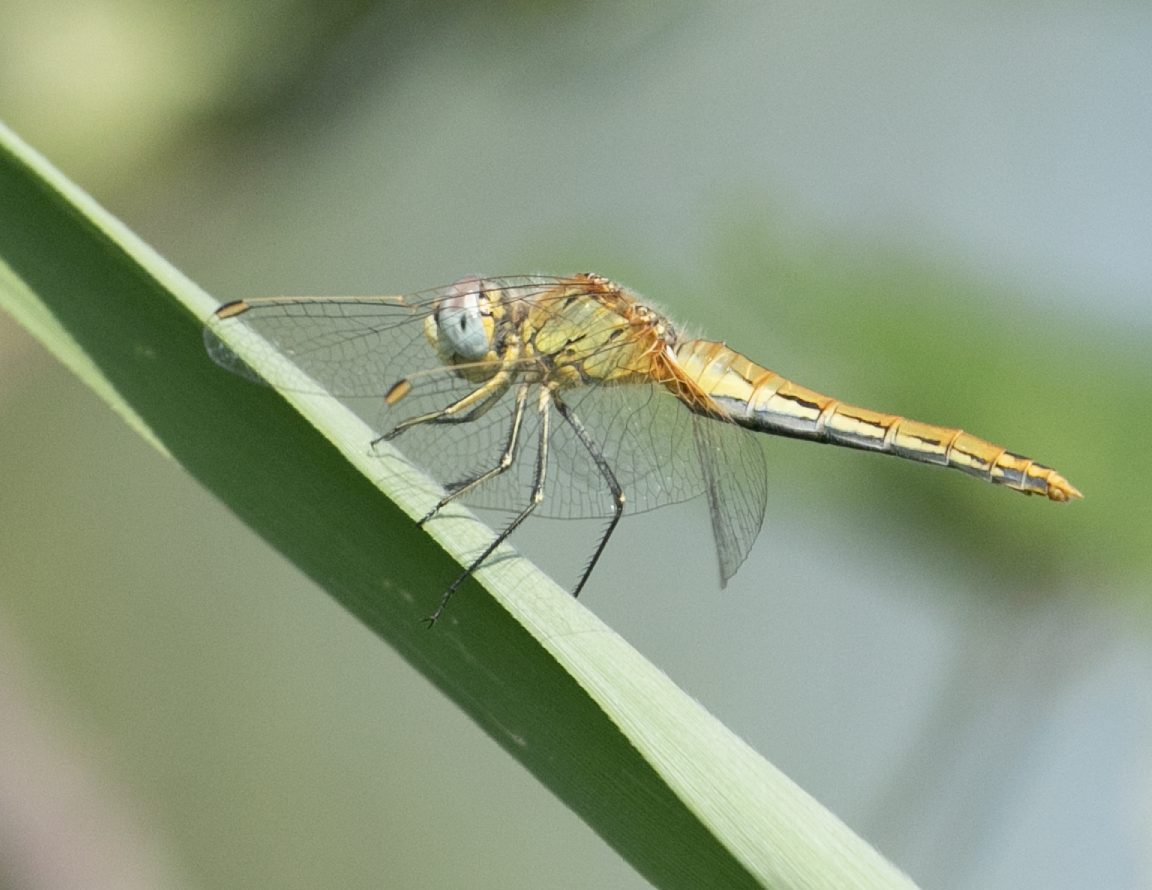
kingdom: Animalia
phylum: Arthropoda
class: Insecta
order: Odonata
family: Libellulidae
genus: Sympetrum
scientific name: Sympetrum fonscolombii
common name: Red-veined darter
